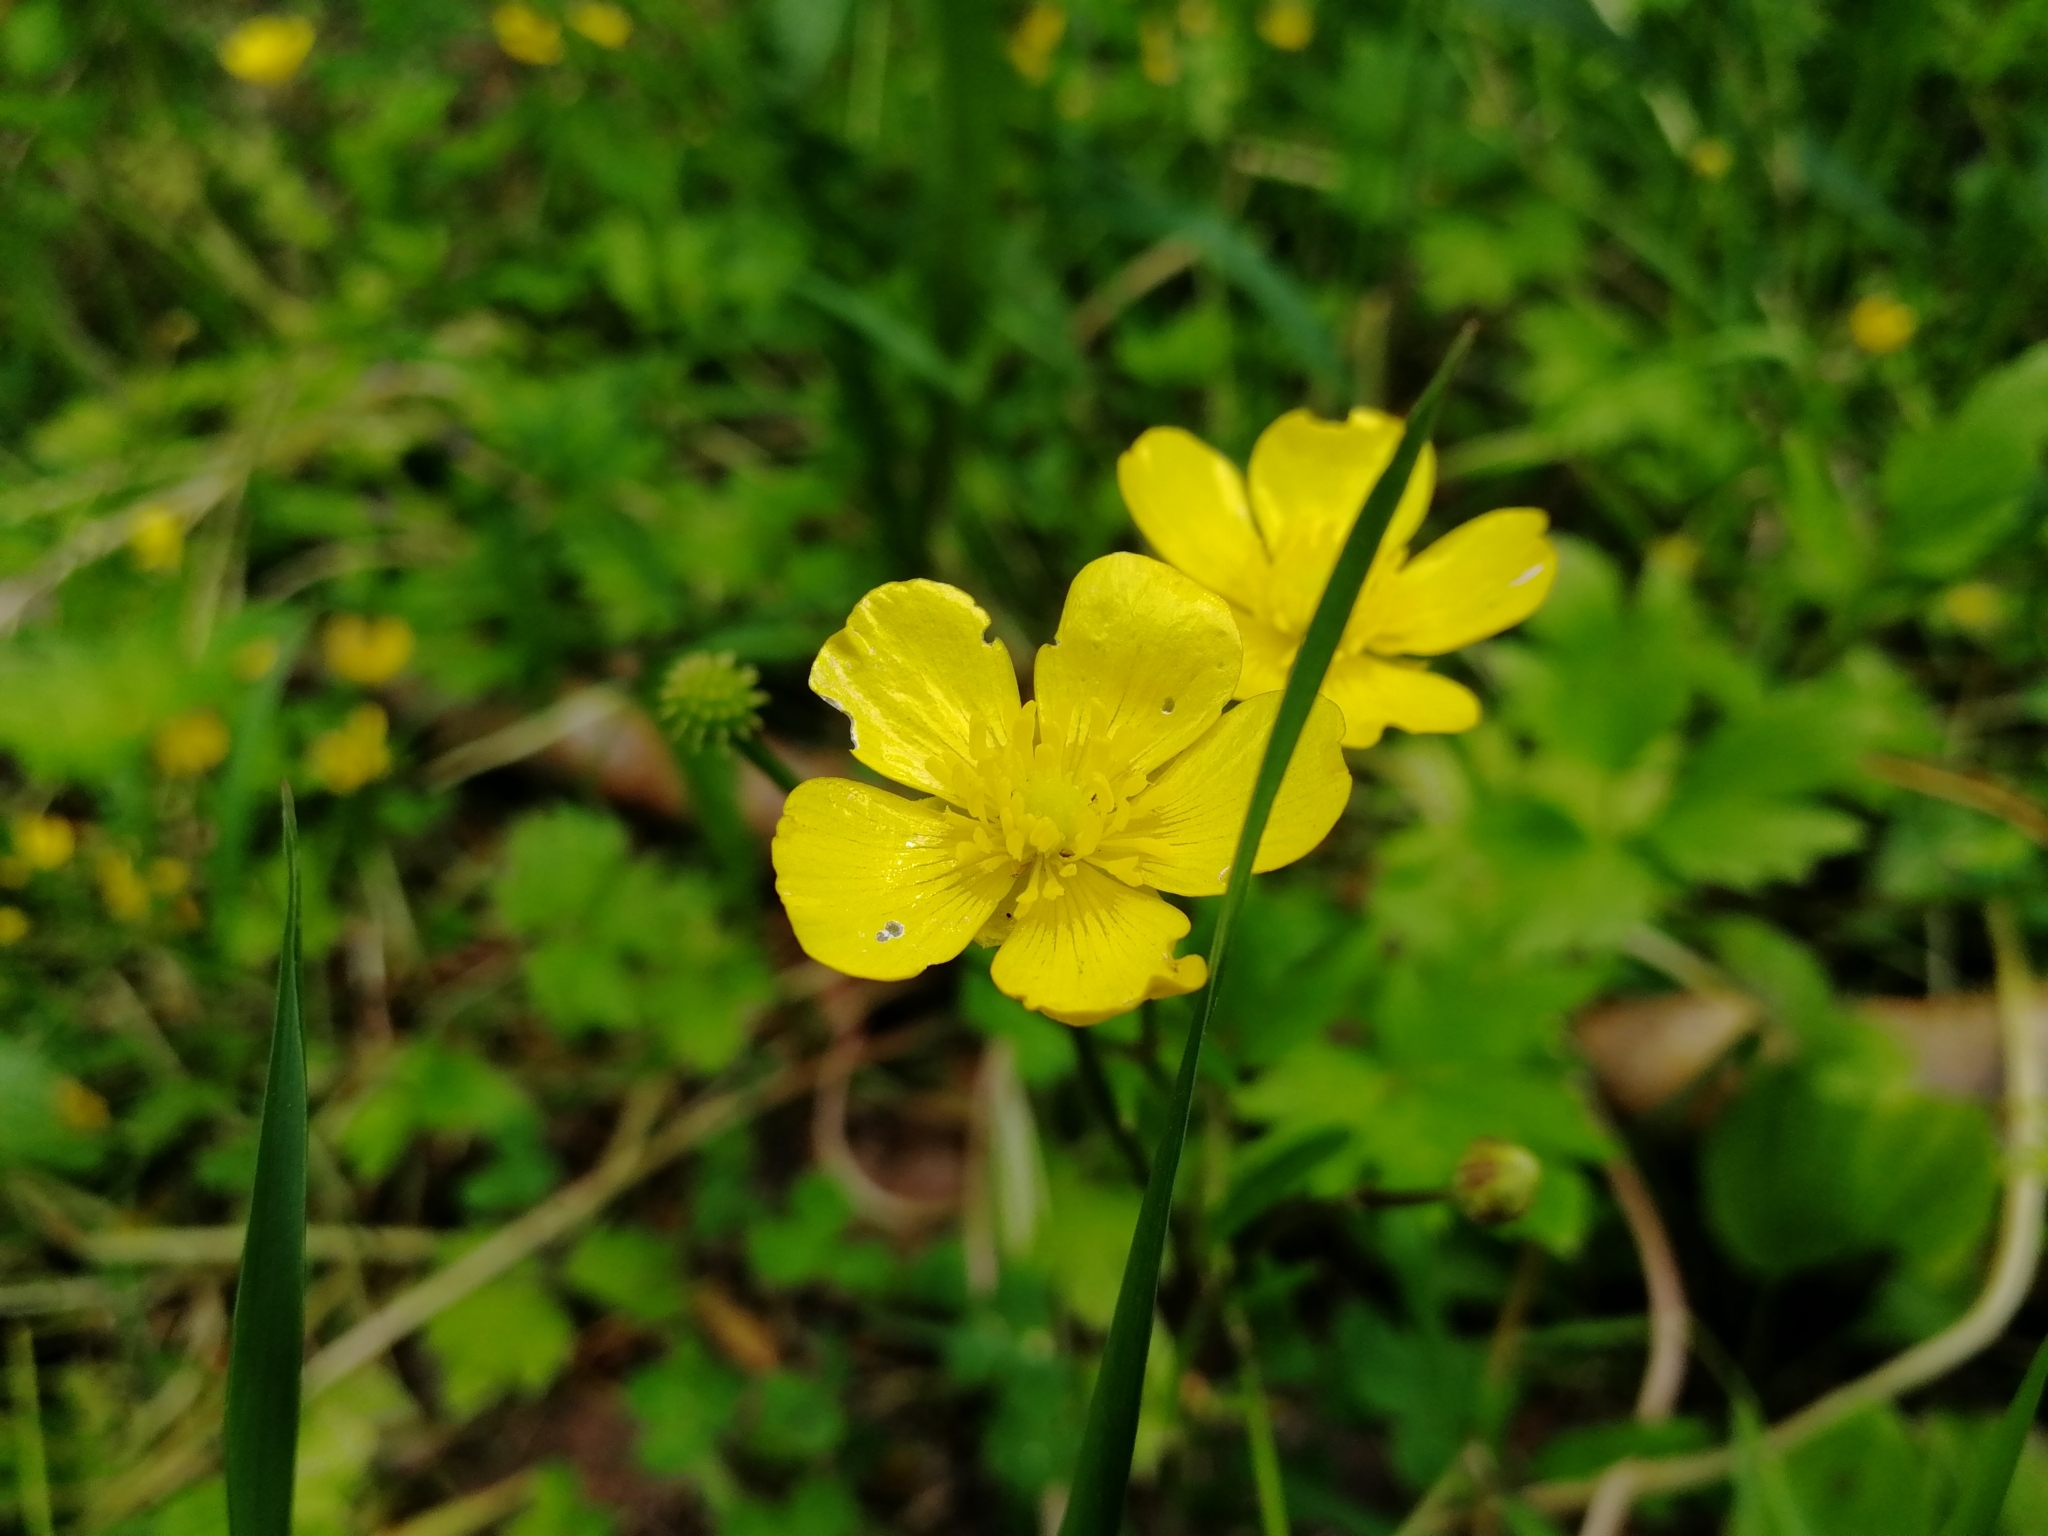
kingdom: Plantae
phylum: Tracheophyta
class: Magnoliopsida
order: Ranunculales
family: Ranunculaceae
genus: Ranunculus
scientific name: Ranunculus repens
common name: Creeping buttercup
